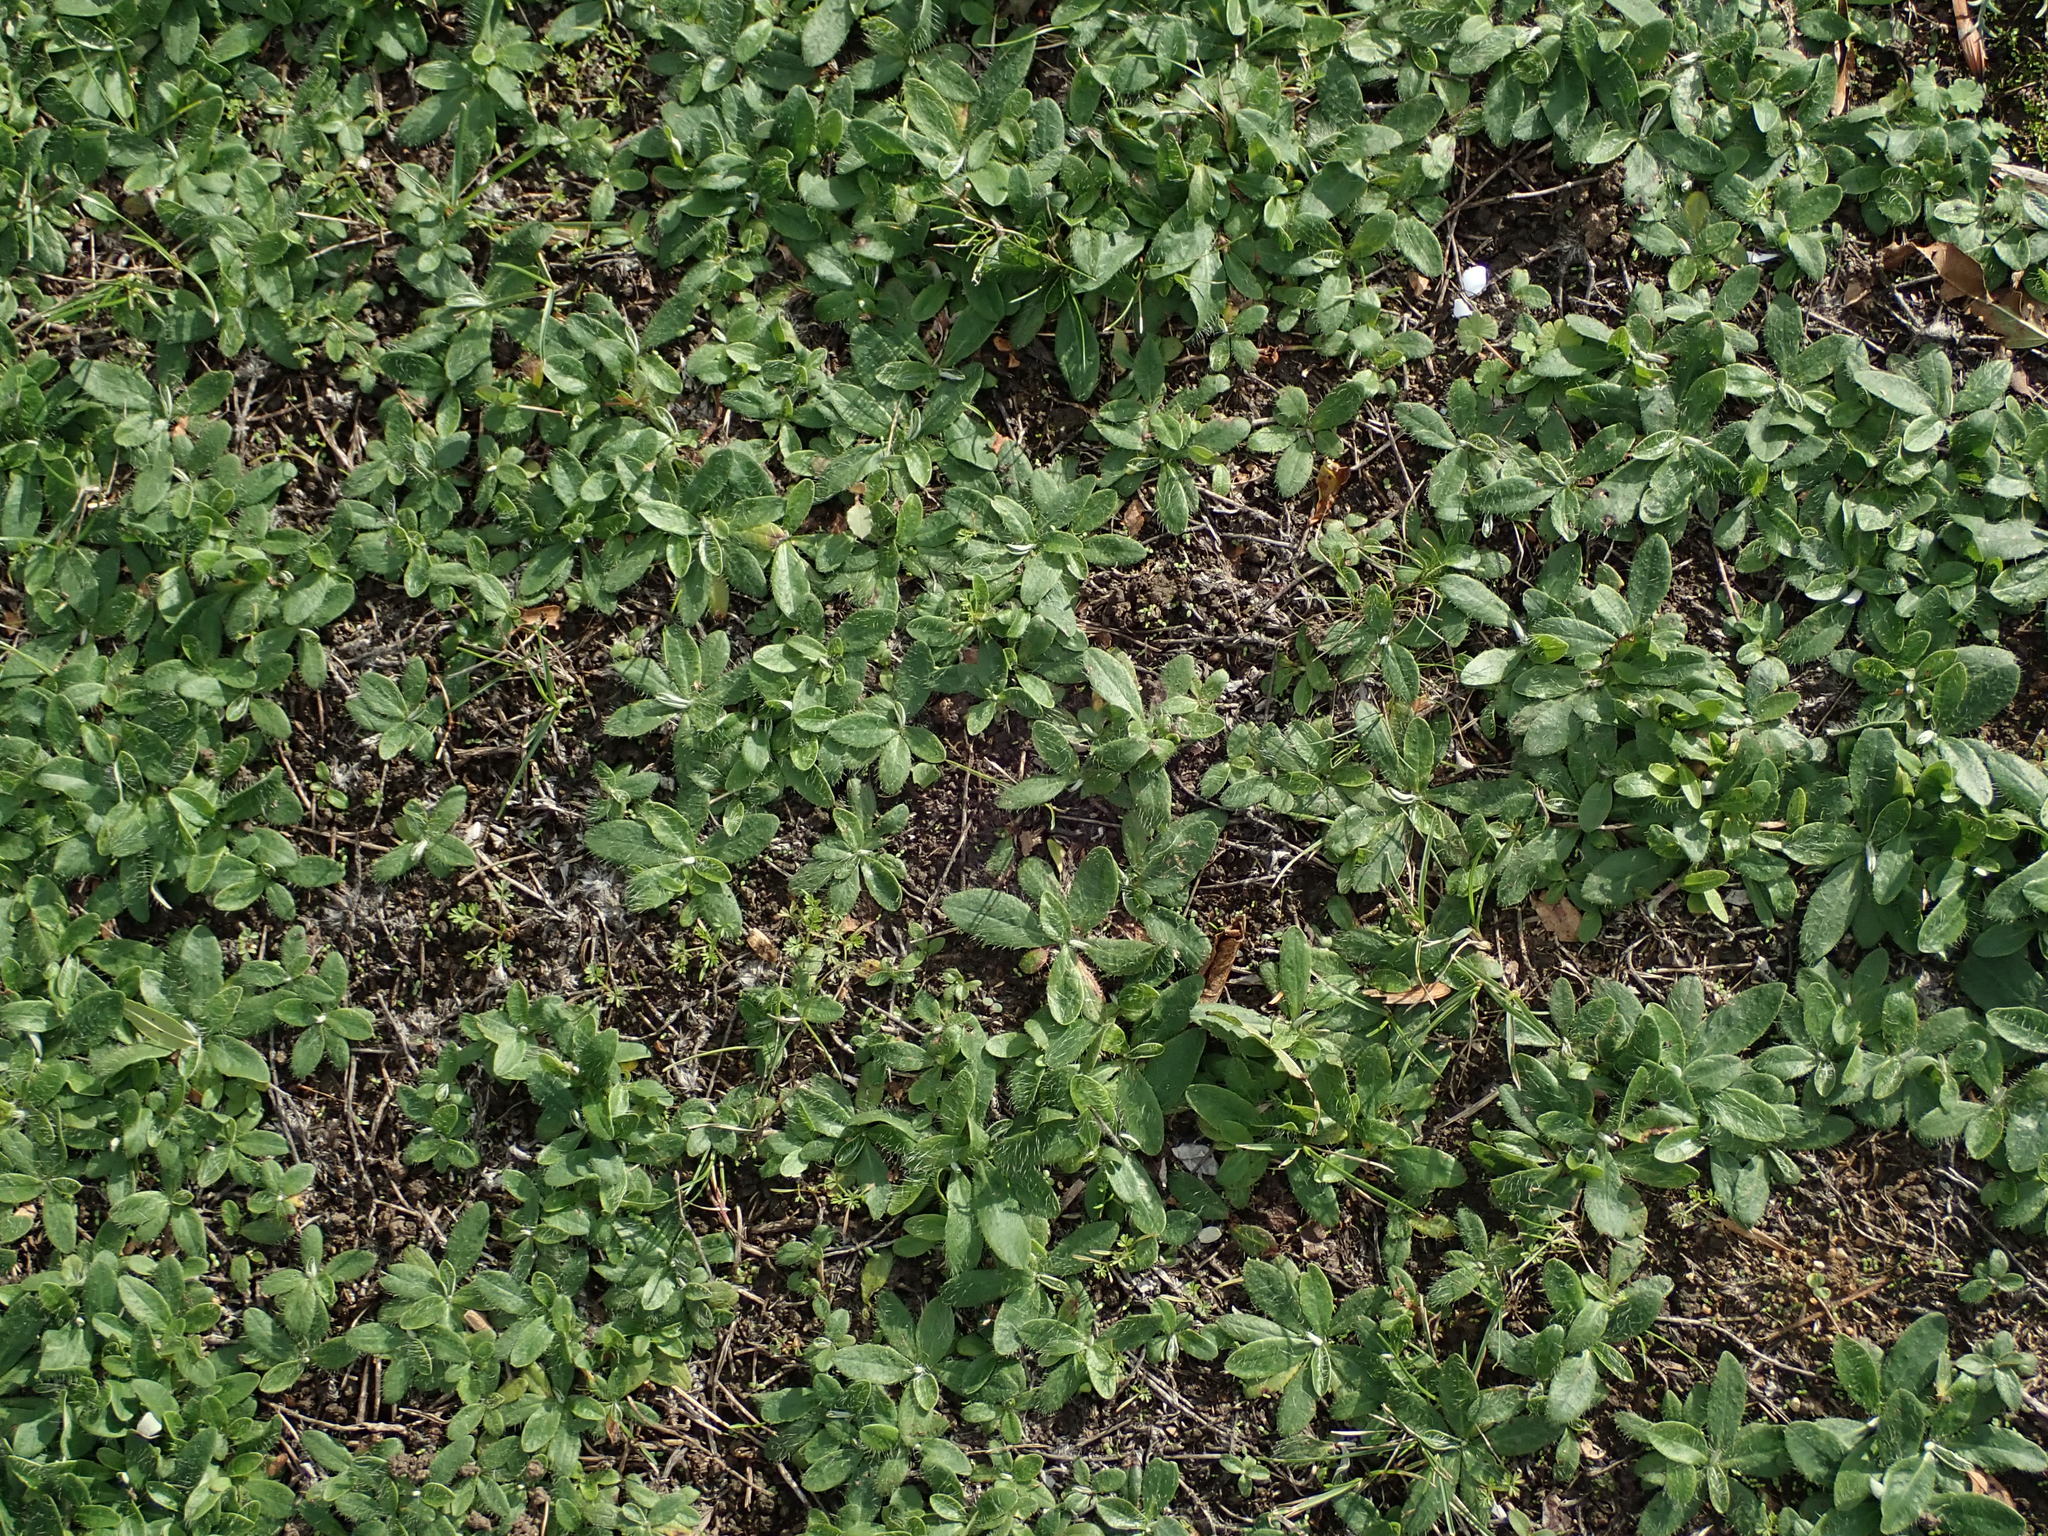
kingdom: Plantae
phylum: Tracheophyta
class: Magnoliopsida
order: Asterales
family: Asteraceae
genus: Pilosella
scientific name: Pilosella officinarum
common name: Mouse-ear hawkweed
